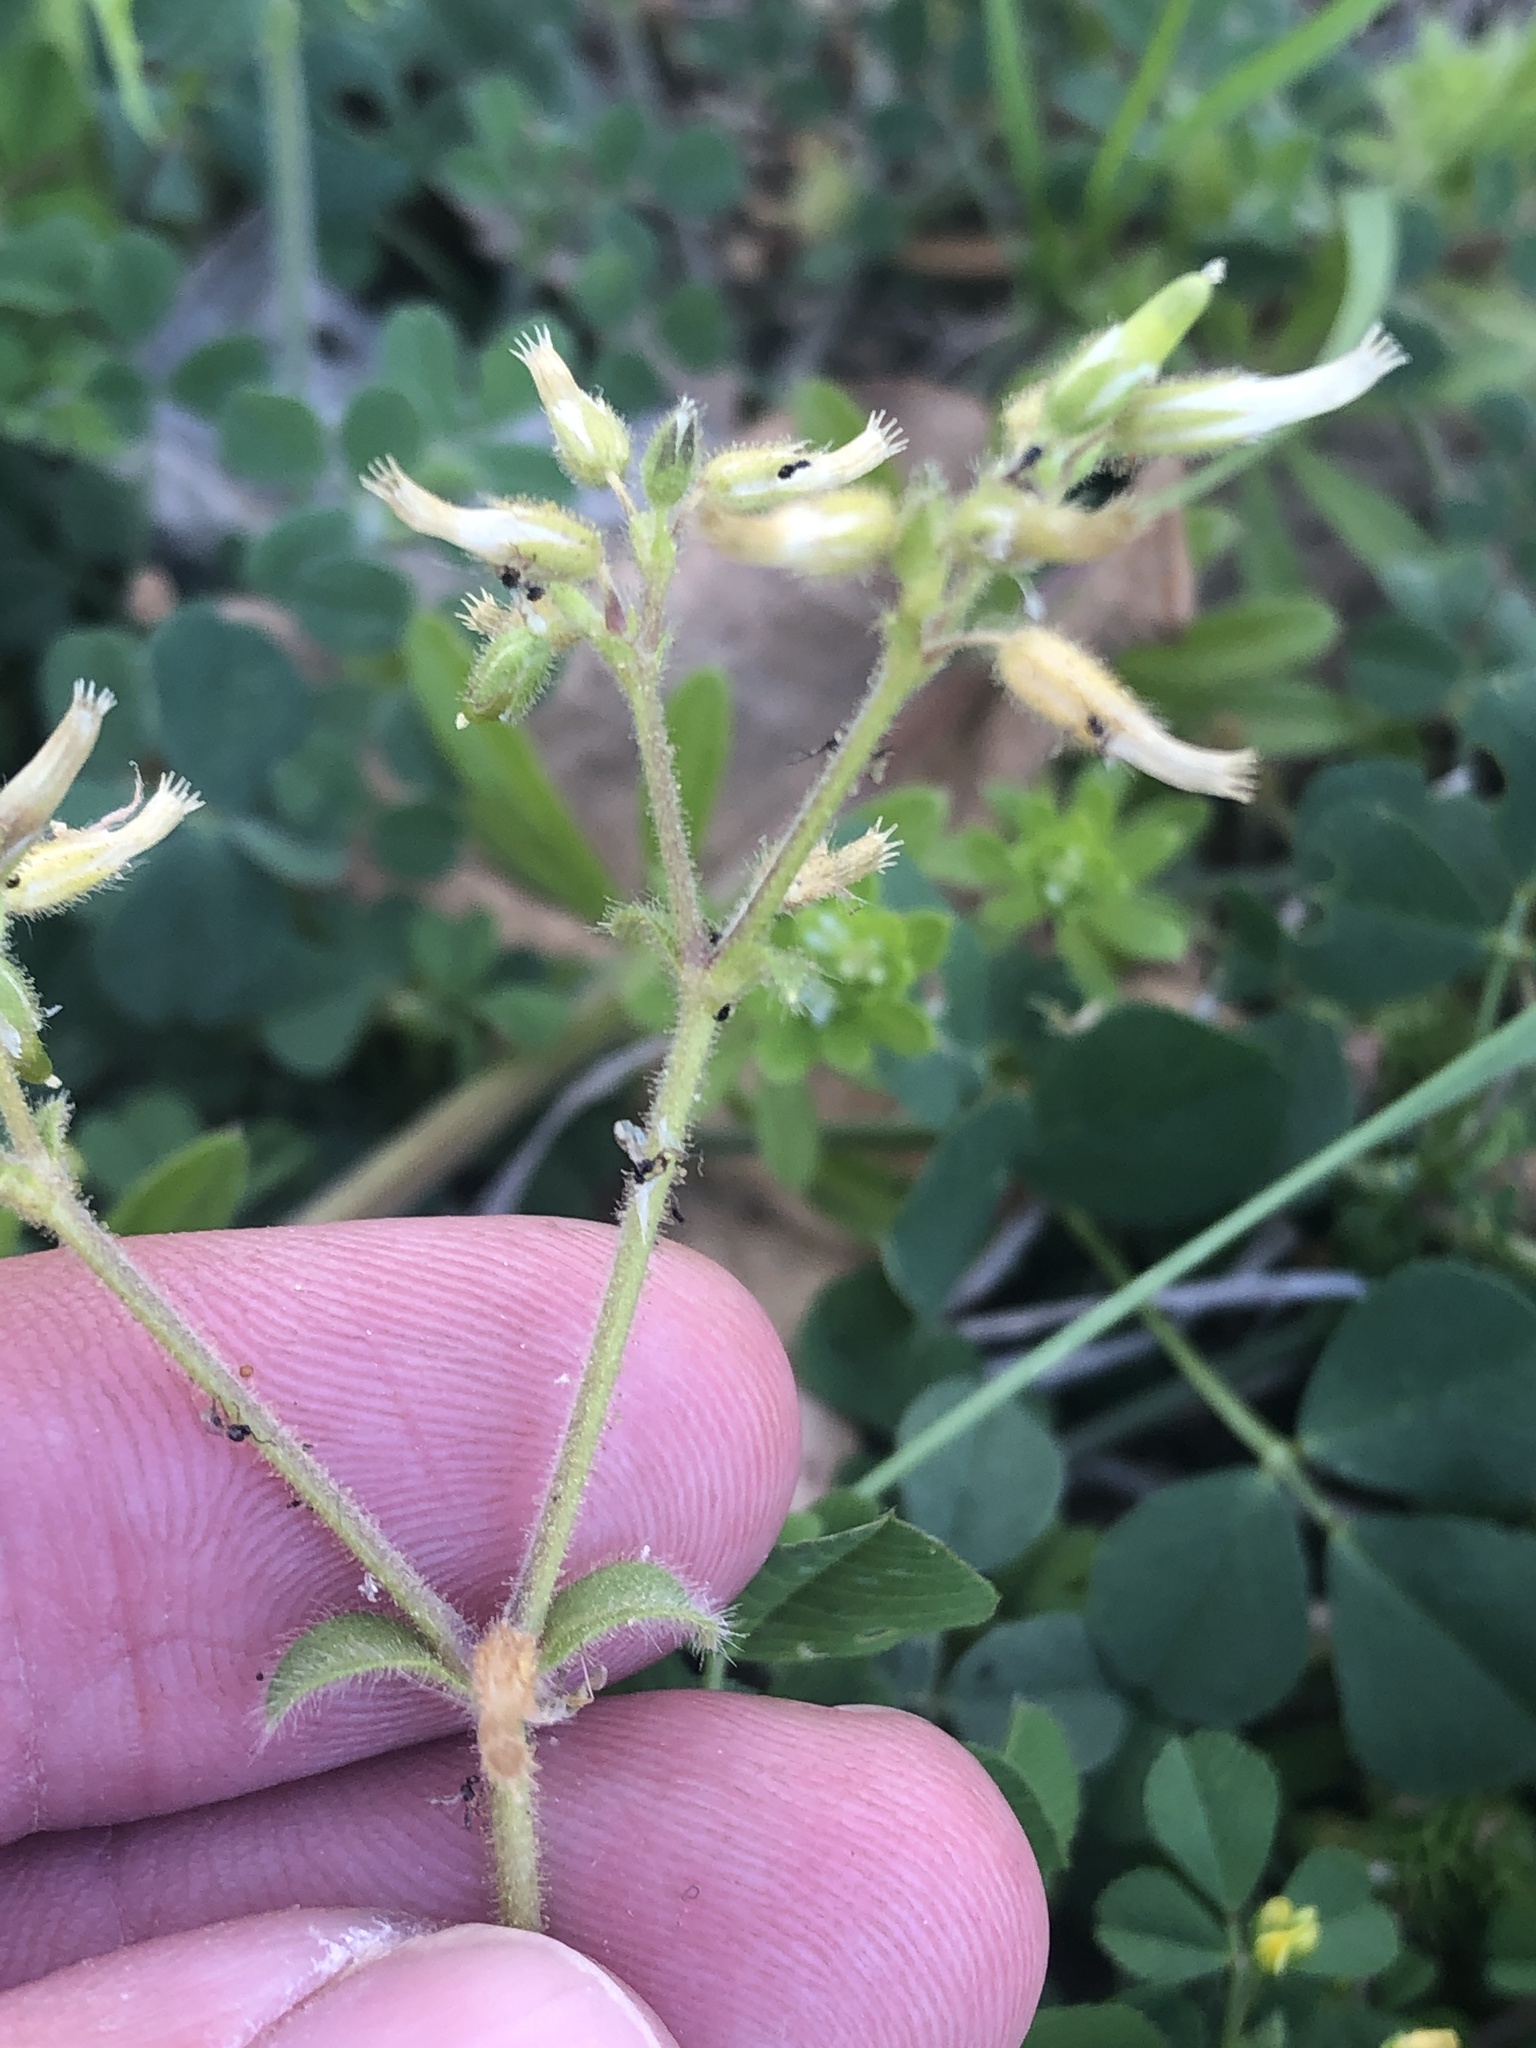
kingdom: Plantae
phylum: Tracheophyta
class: Magnoliopsida
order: Caryophyllales
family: Caryophyllaceae
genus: Cerastium
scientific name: Cerastium glomeratum
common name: Sticky chickweed
